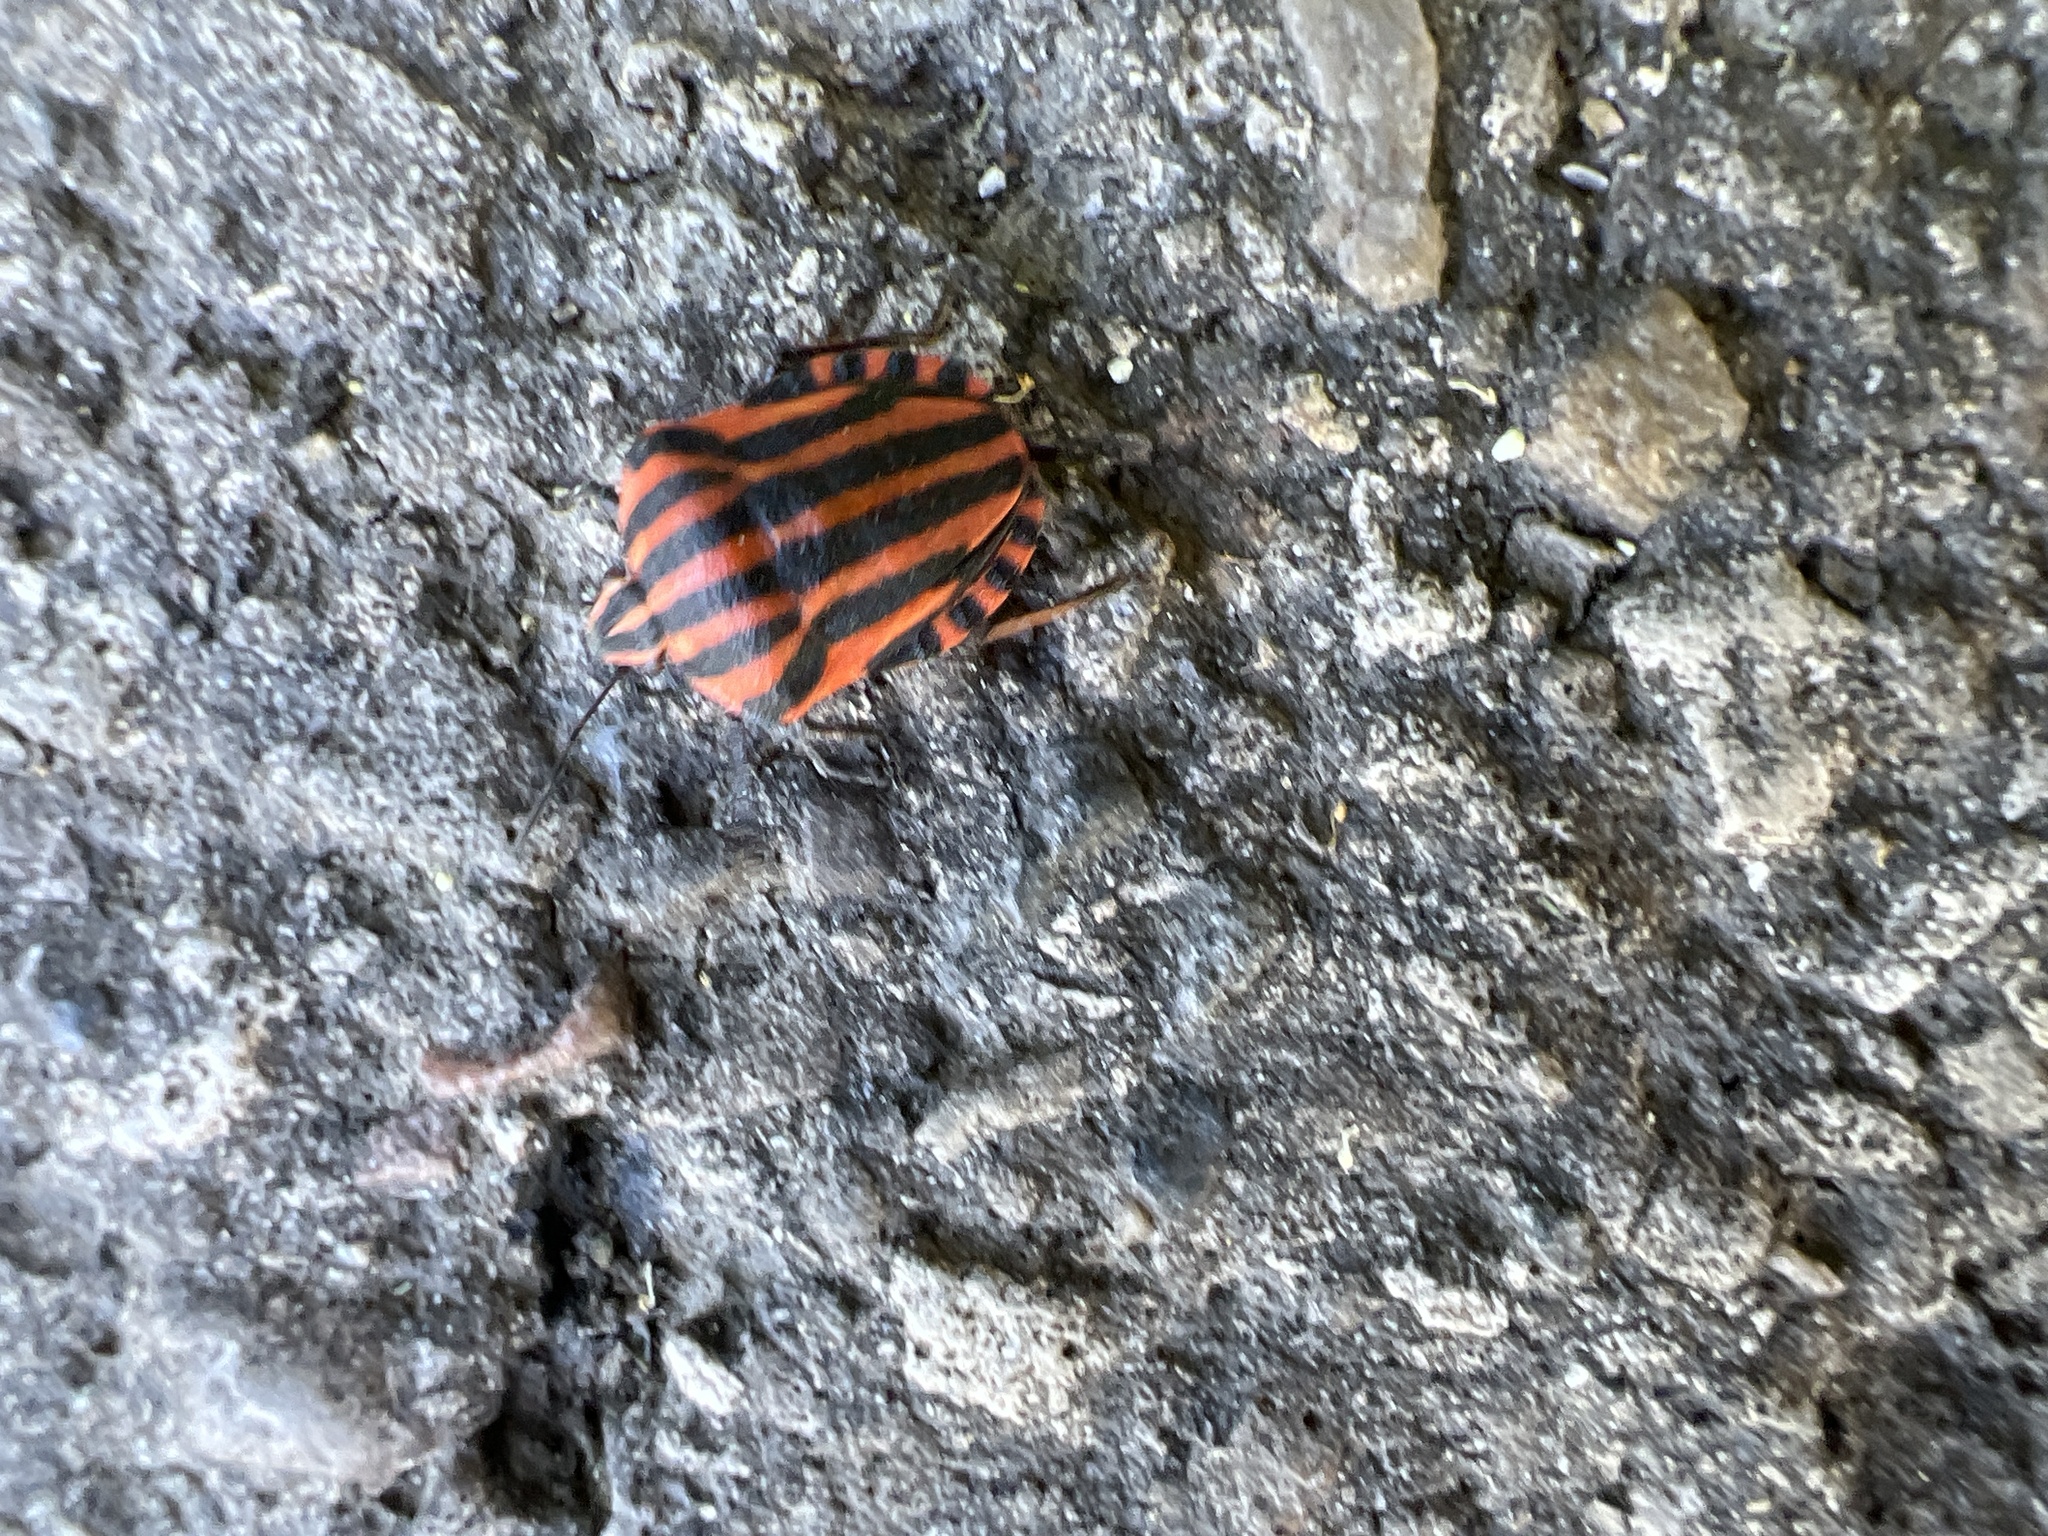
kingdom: Animalia
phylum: Arthropoda
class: Insecta
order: Hemiptera
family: Pentatomidae
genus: Graphosoma
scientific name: Graphosoma italicum
